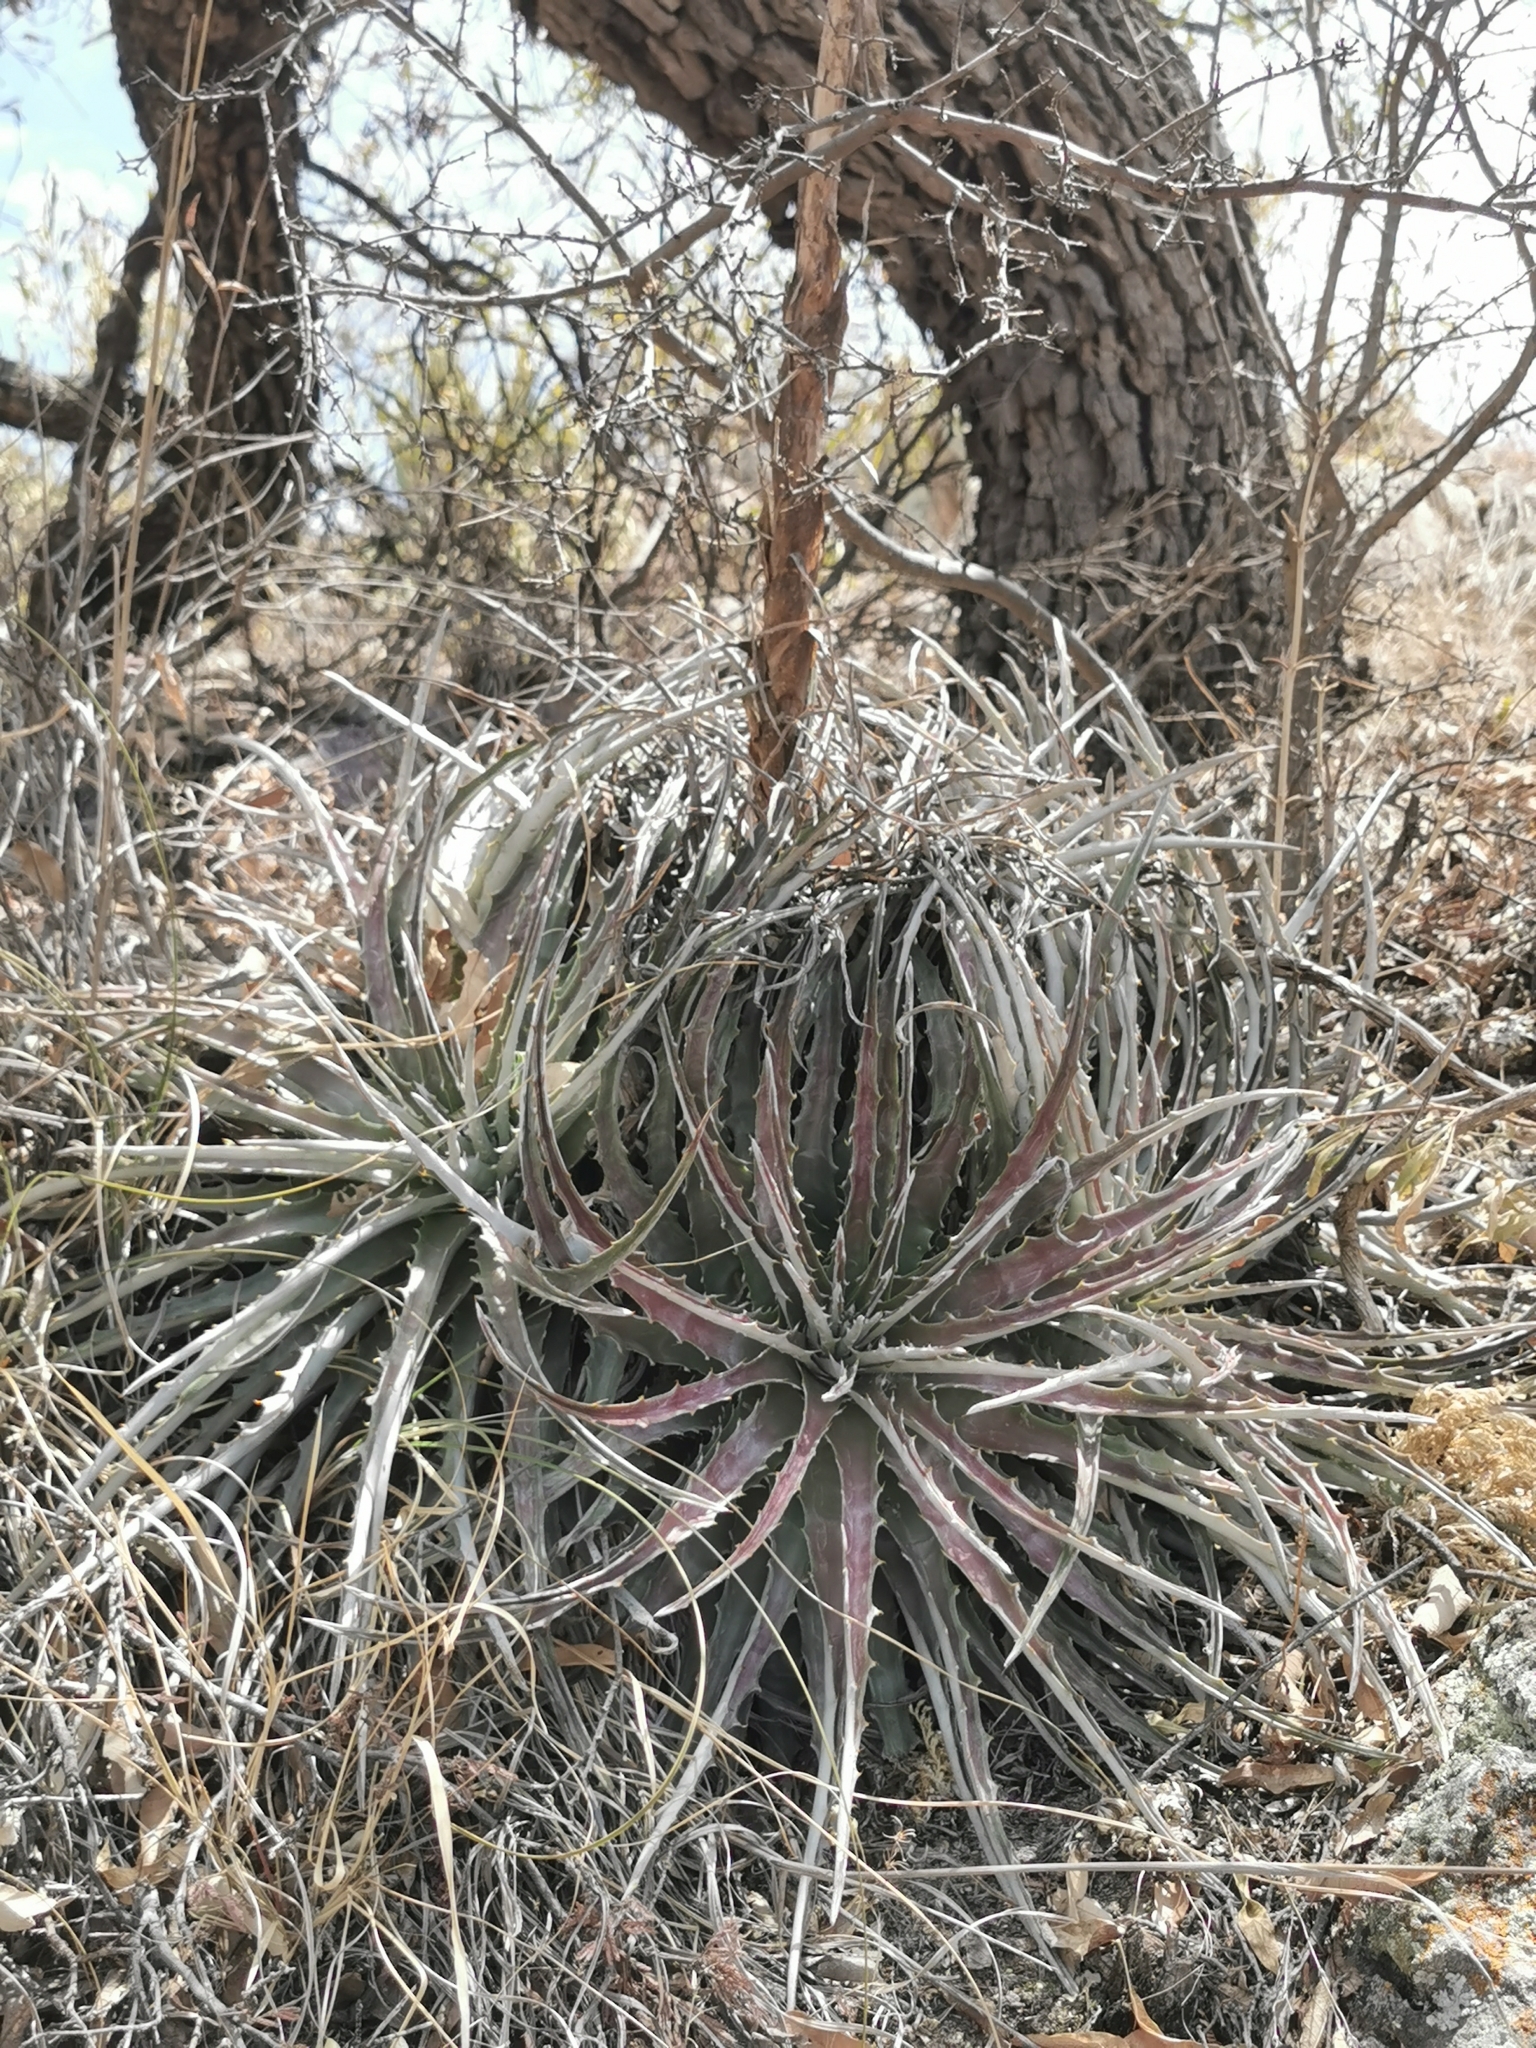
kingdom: Plantae
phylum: Tracheophyta
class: Liliopsida
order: Poales
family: Bromeliaceae
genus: Hechtia
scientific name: Hechtia marthae
